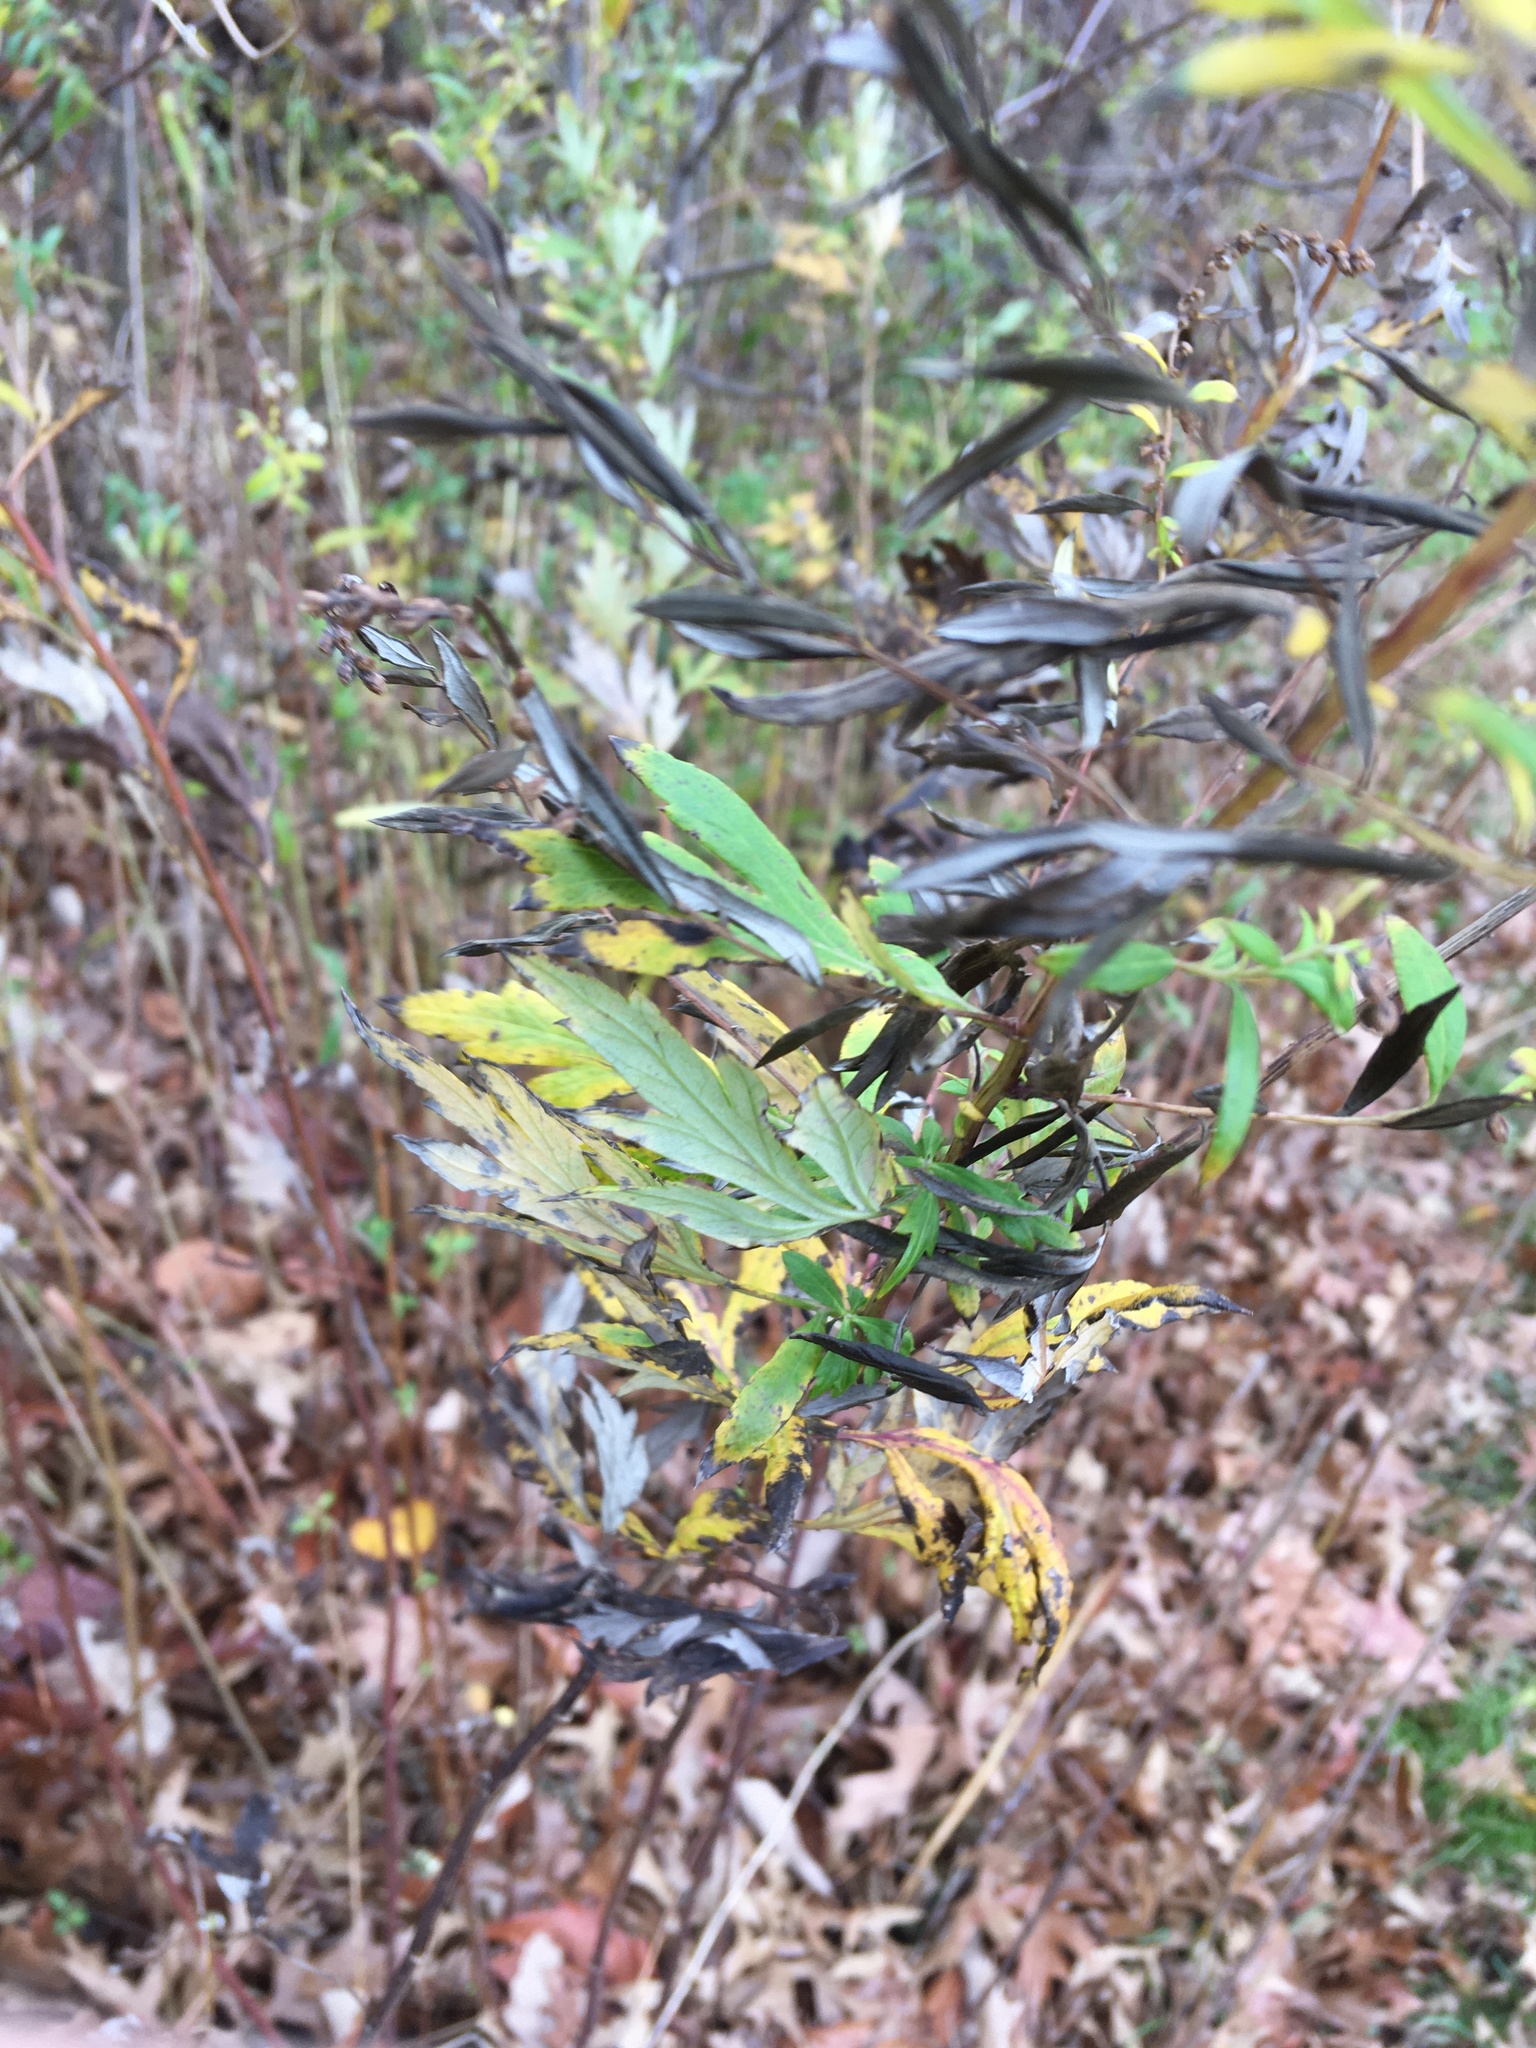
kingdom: Plantae
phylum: Tracheophyta
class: Magnoliopsida
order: Asterales
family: Asteraceae
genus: Artemisia
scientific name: Artemisia vulgaris
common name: Mugwort
